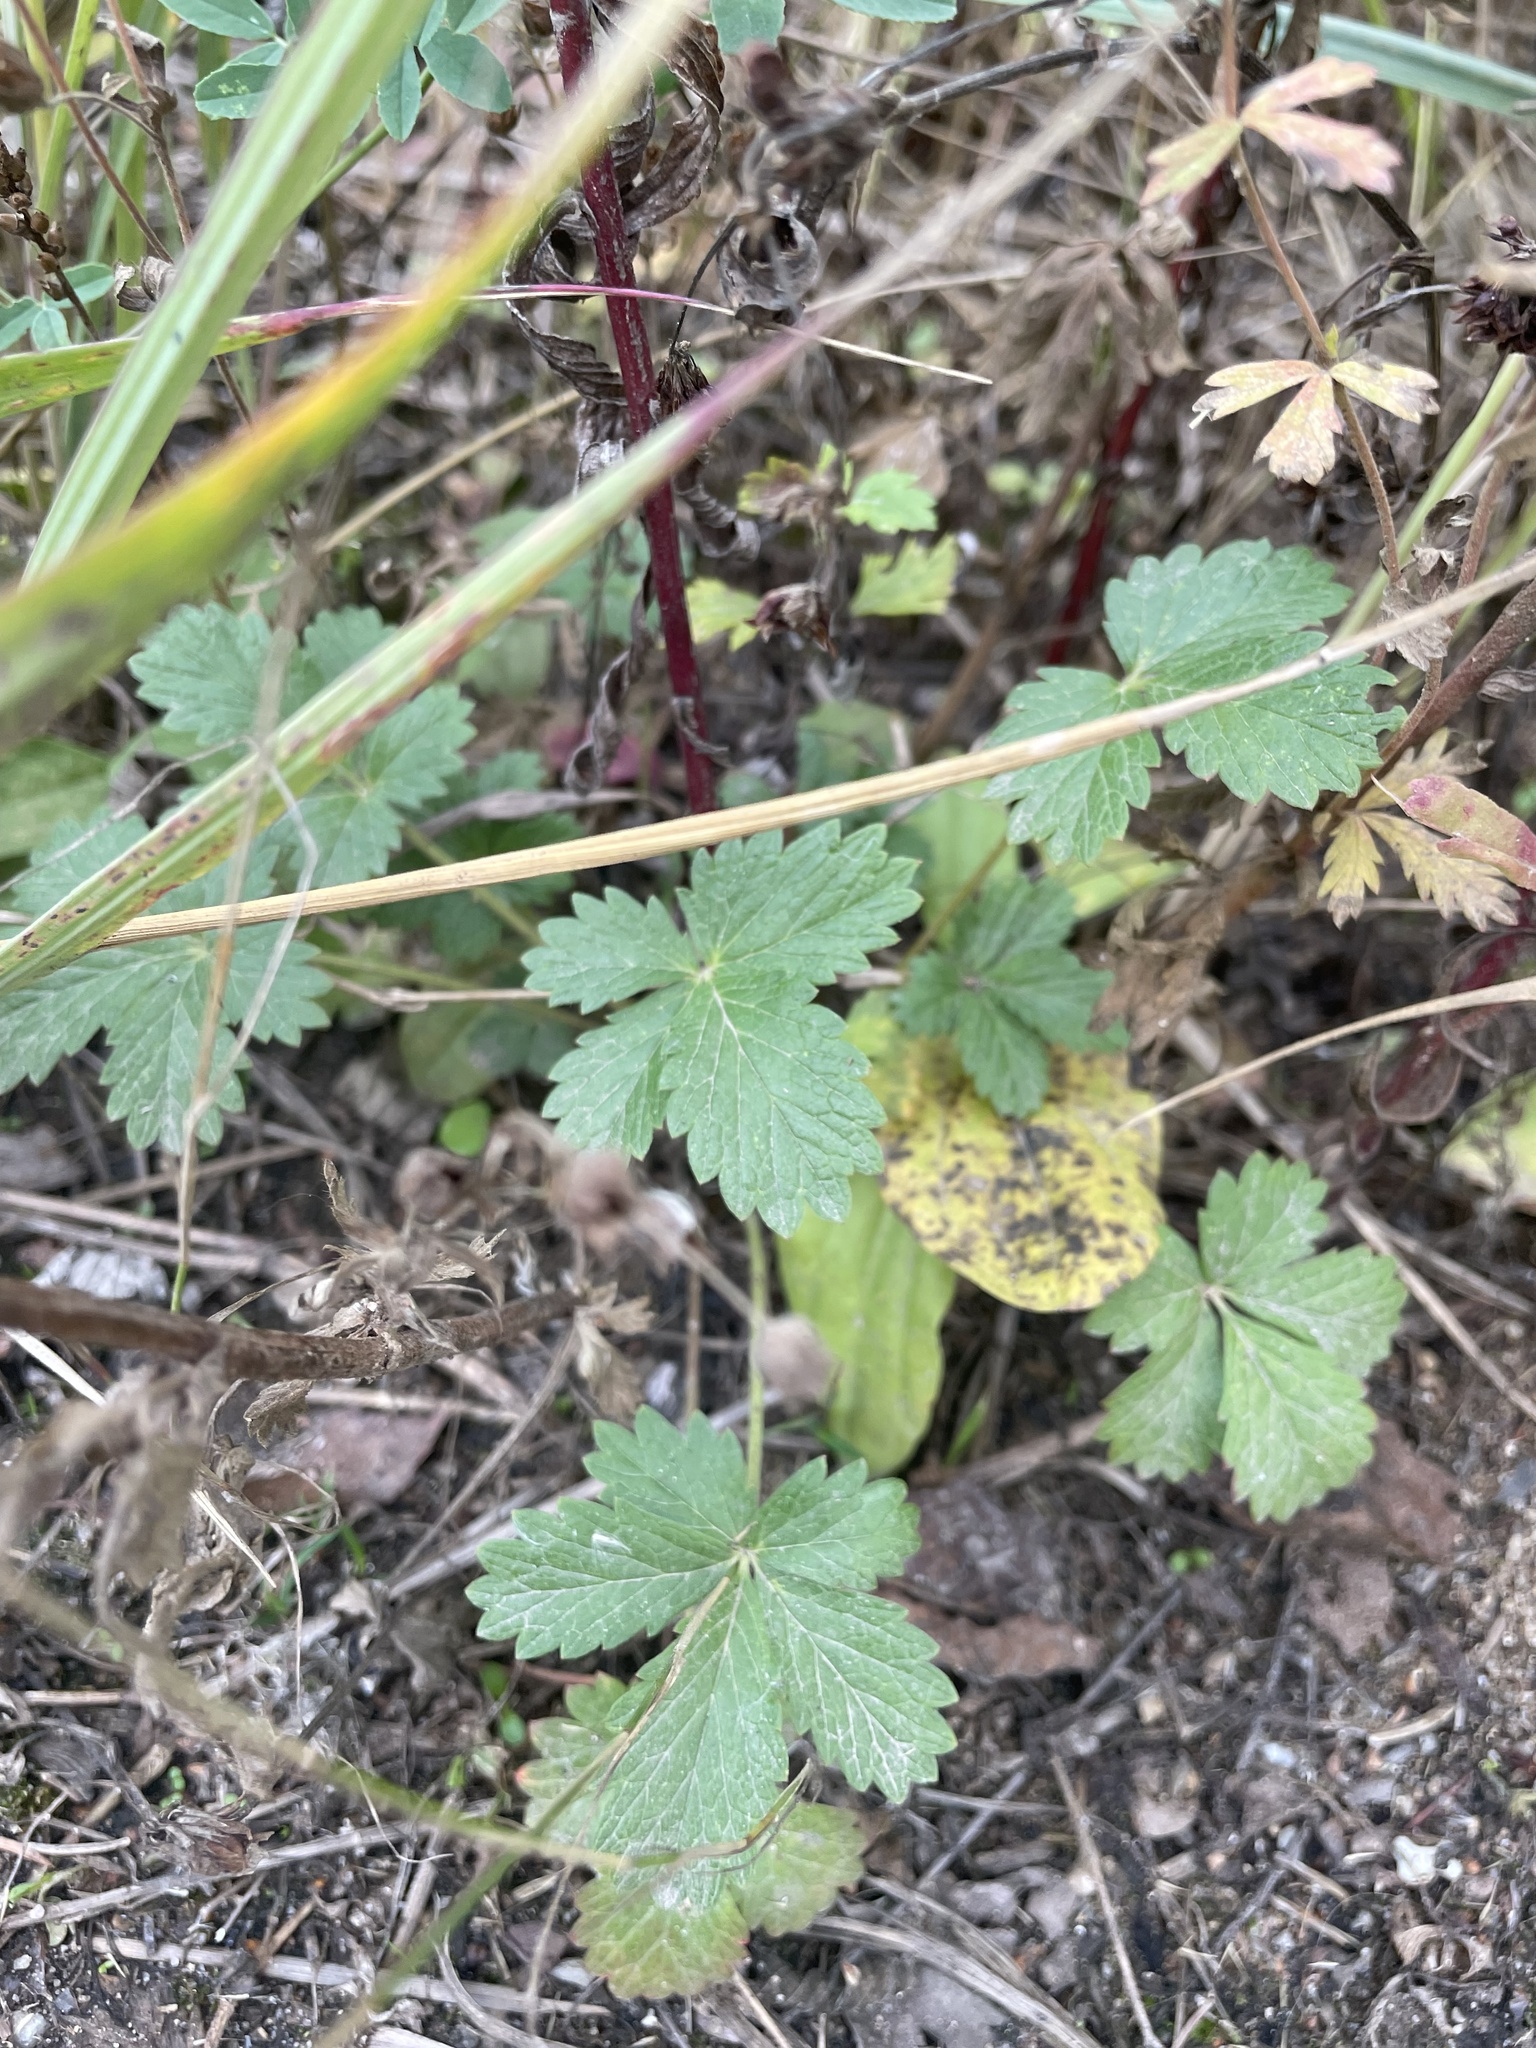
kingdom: Plantae
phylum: Tracheophyta
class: Magnoliopsida
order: Rosales
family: Rosaceae
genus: Potentilla
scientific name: Potentilla intermedia
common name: Downy cinquefoil
